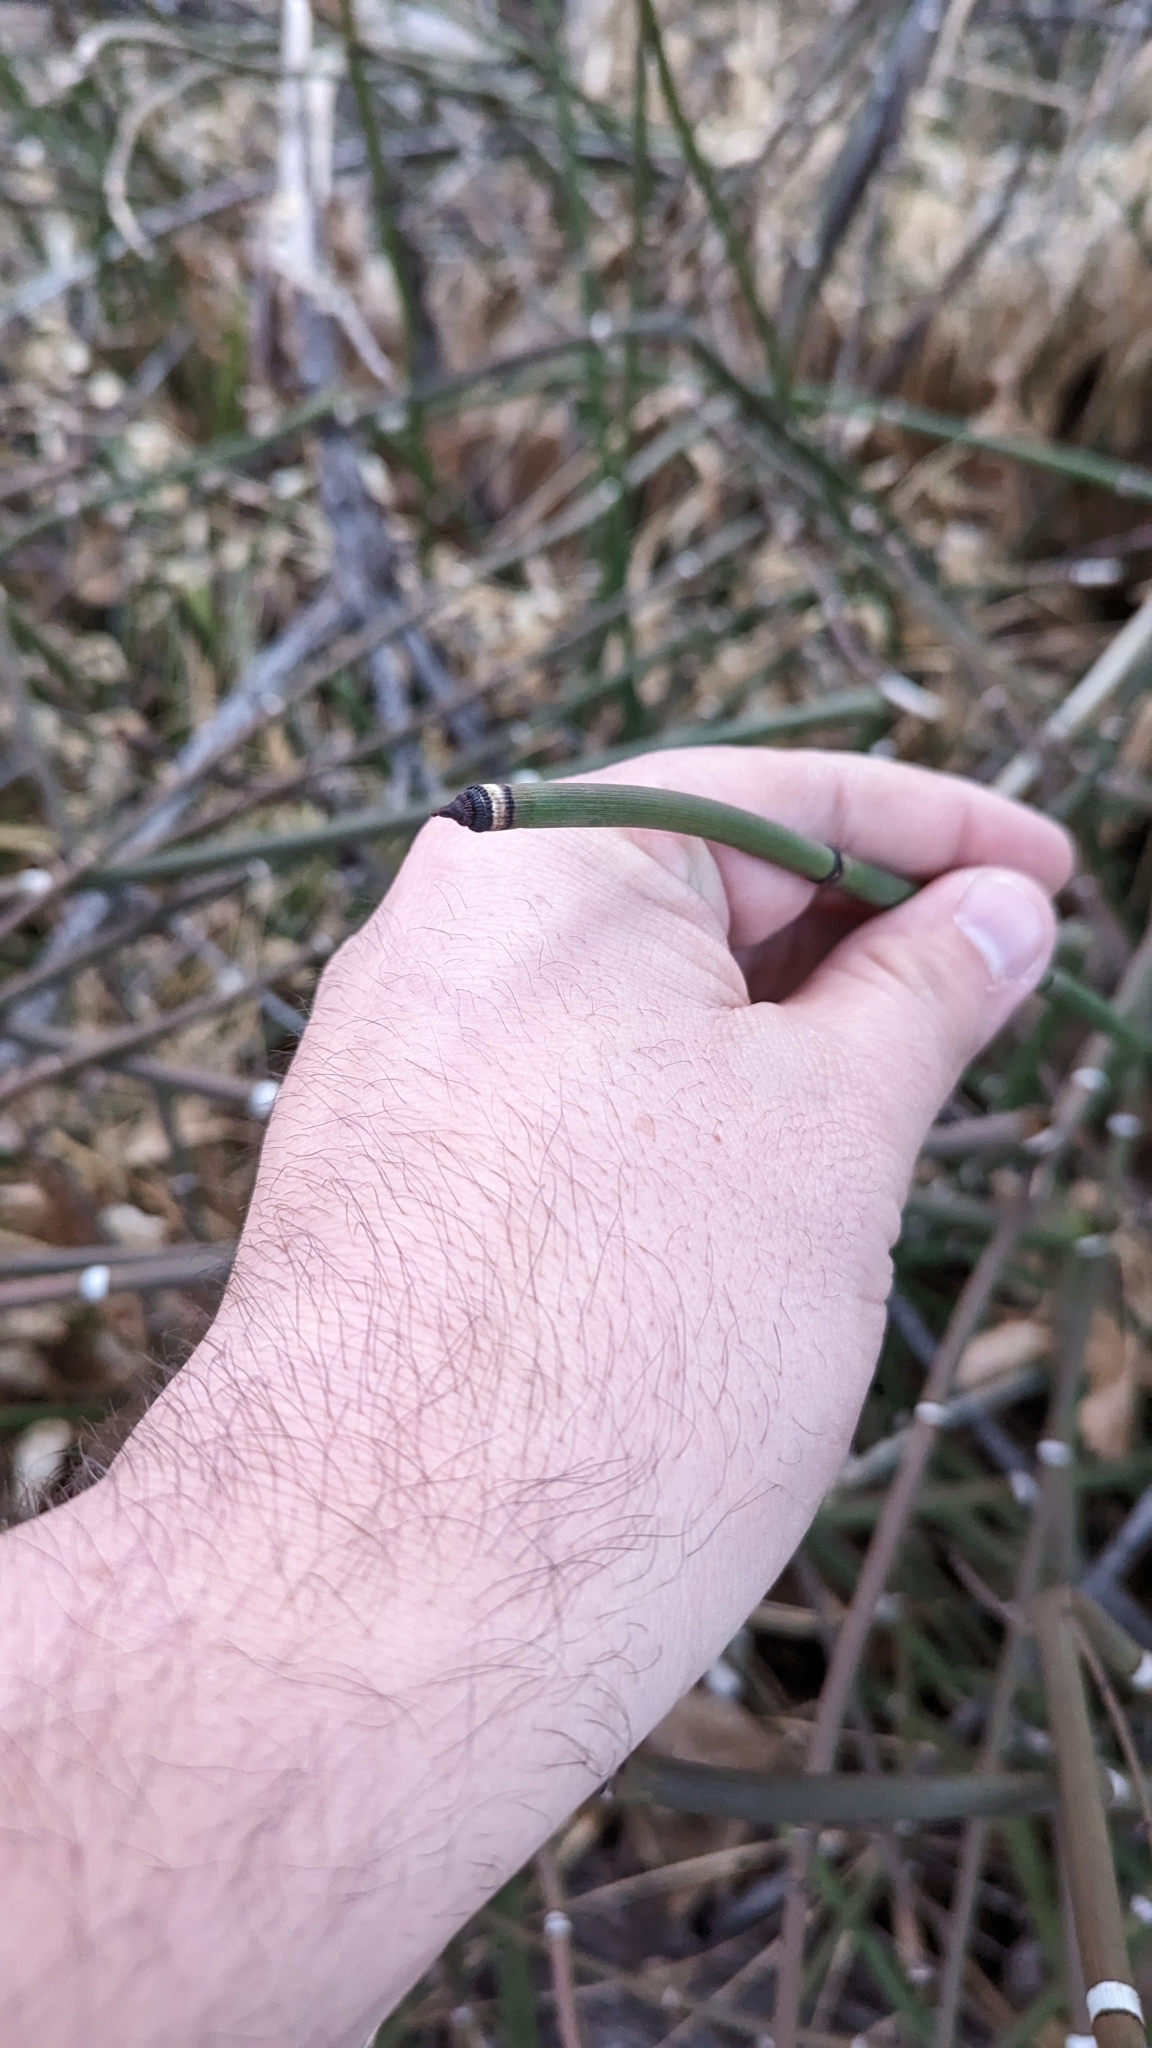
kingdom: Plantae
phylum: Tracheophyta
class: Polypodiopsida
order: Equisetales
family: Equisetaceae
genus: Equisetum
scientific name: Equisetum praealtum
